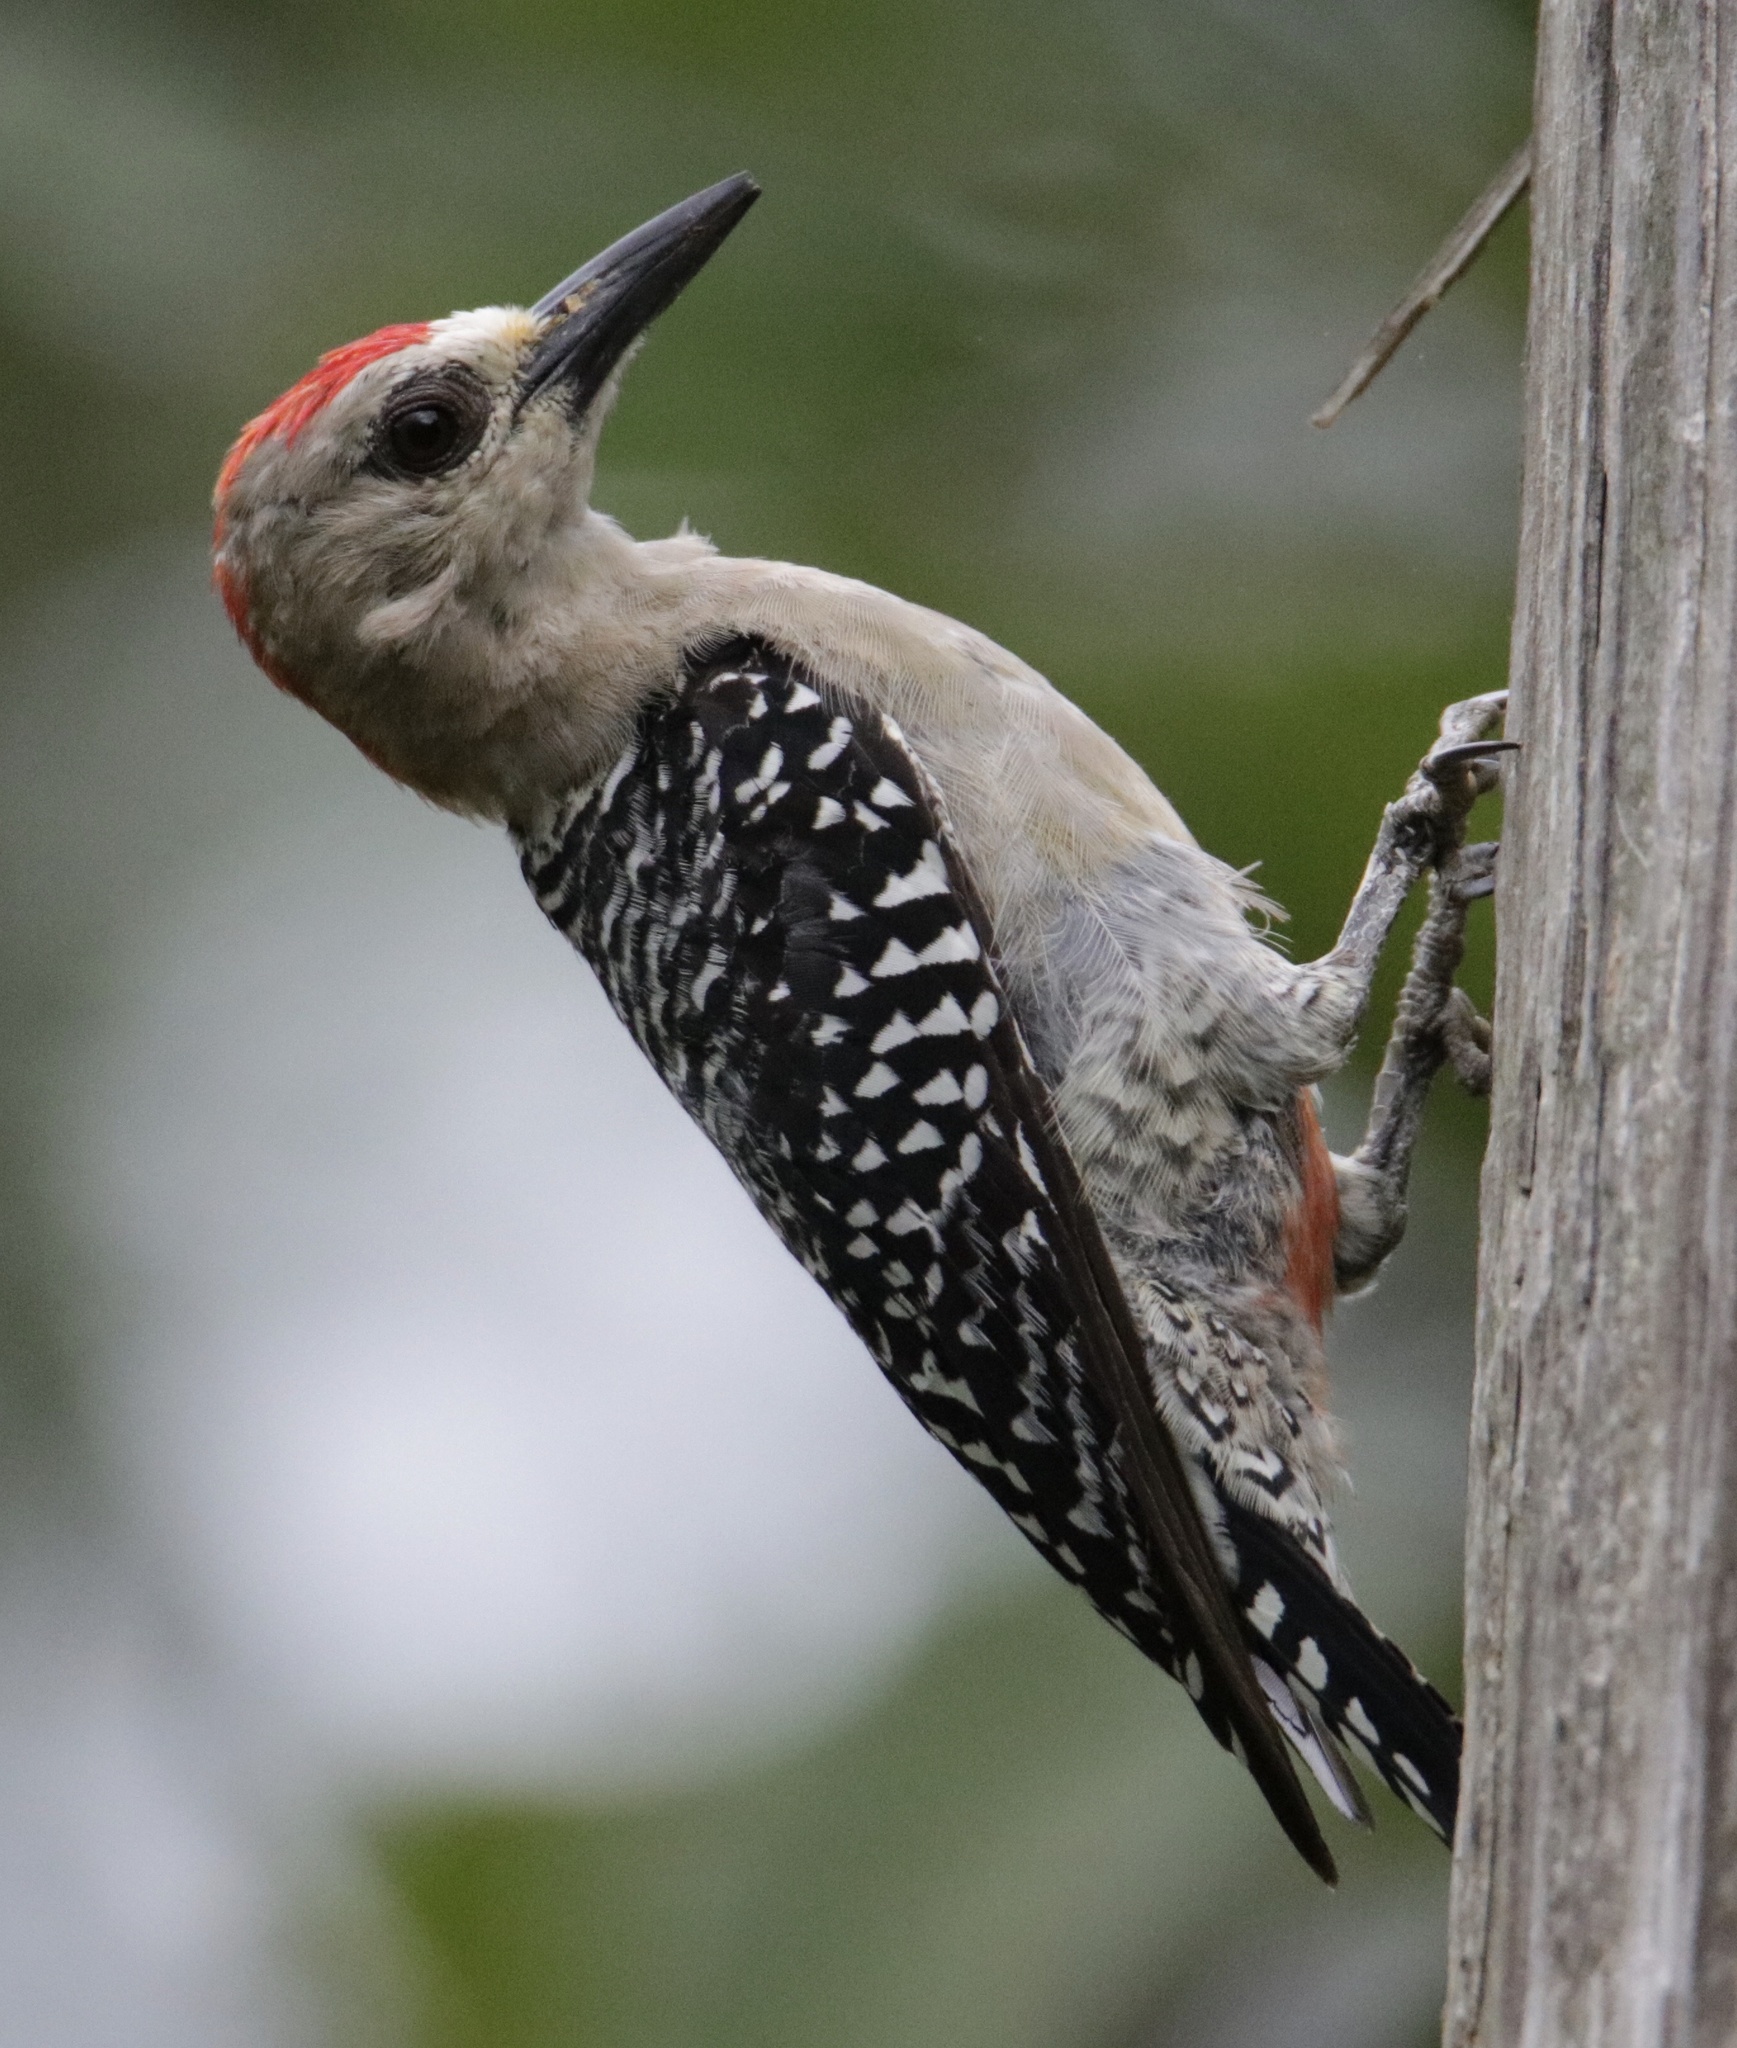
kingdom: Animalia
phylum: Chordata
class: Aves
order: Piciformes
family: Picidae
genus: Melanerpes
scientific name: Melanerpes rubricapillus
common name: Red-crowned woodpecker
